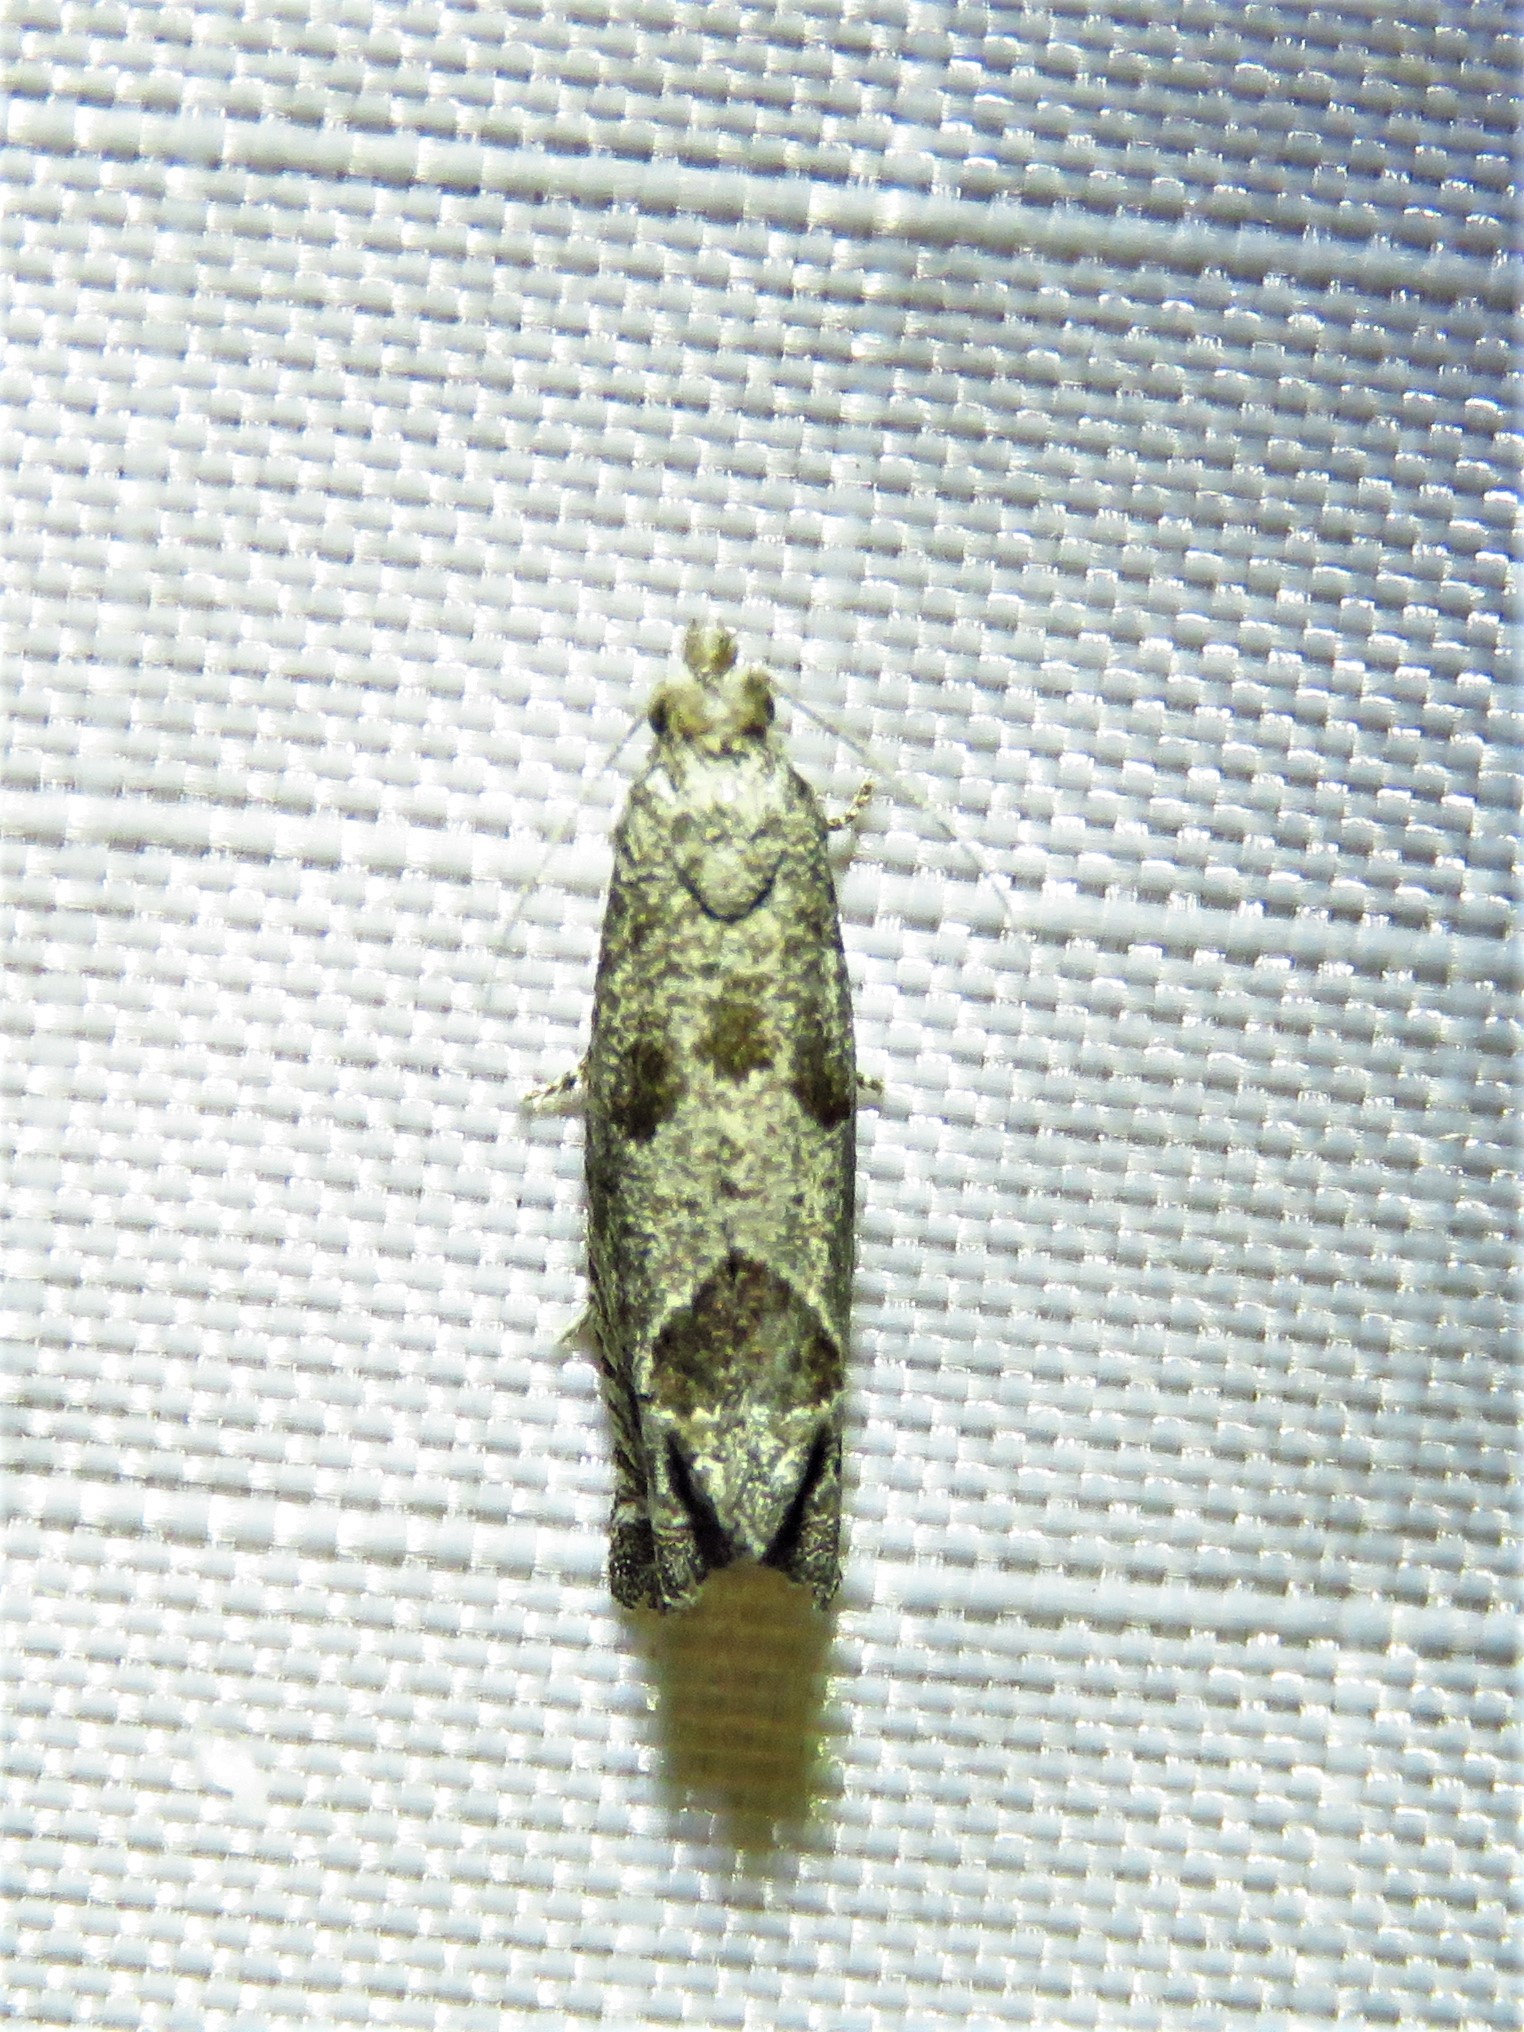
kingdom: Animalia
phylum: Arthropoda
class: Insecta
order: Lepidoptera
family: Tortricidae
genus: Suleima
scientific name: Suleima helianthana
